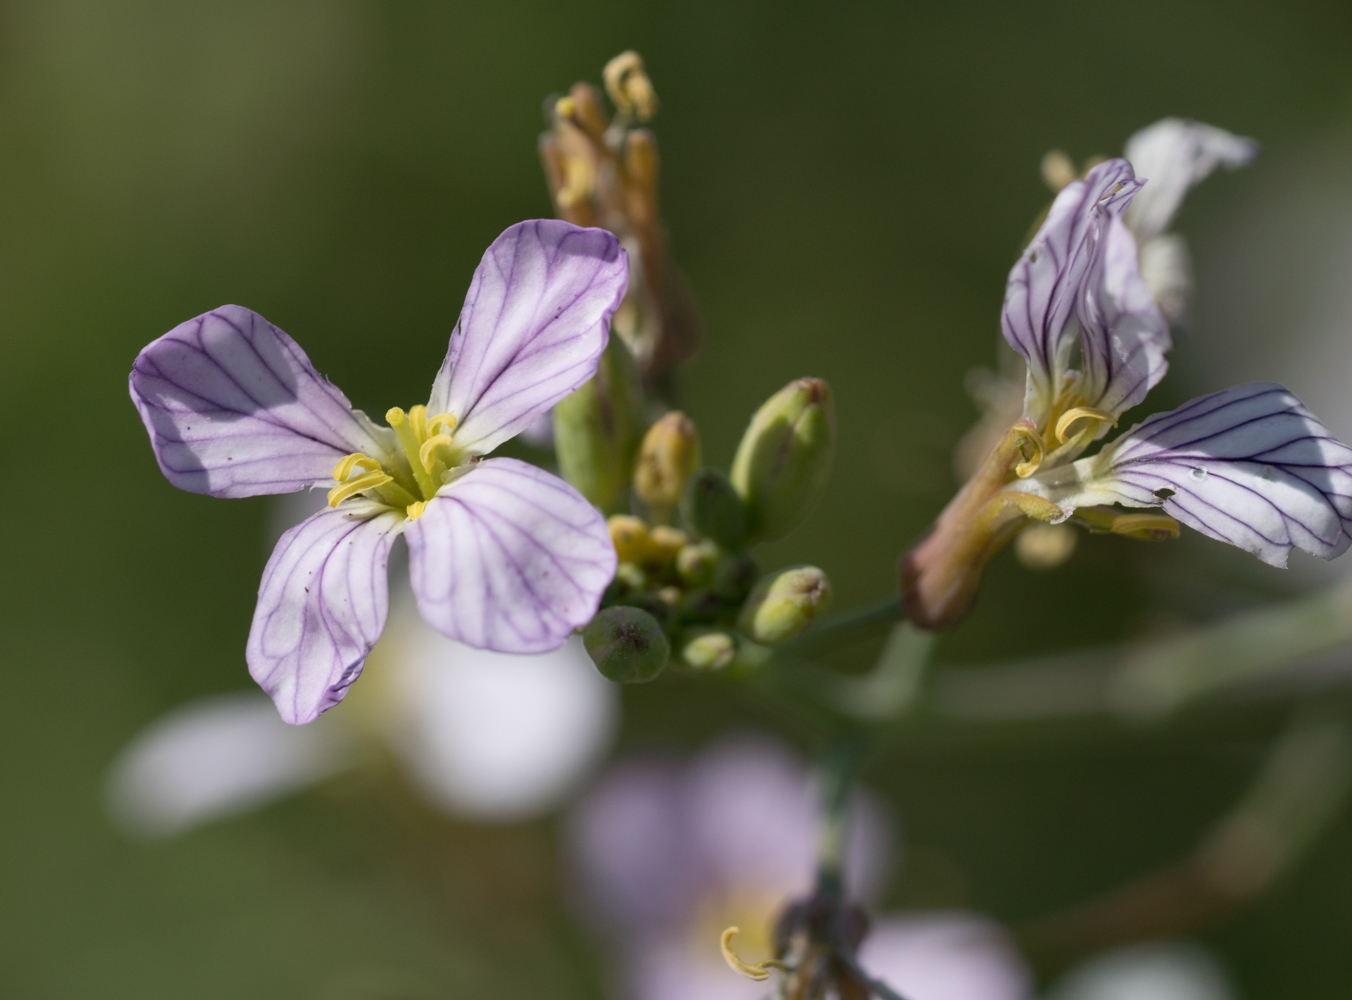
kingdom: Plantae
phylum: Tracheophyta
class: Magnoliopsida
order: Brassicales
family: Brassicaceae
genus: Raphanus
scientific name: Raphanus sativus
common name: Cultivated radish
